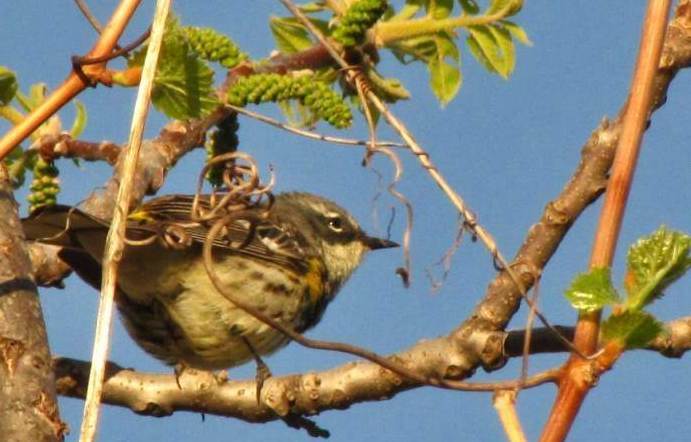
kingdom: Animalia
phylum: Chordata
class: Aves
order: Passeriformes
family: Parulidae
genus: Setophaga
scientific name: Setophaga coronata
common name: Myrtle warbler
